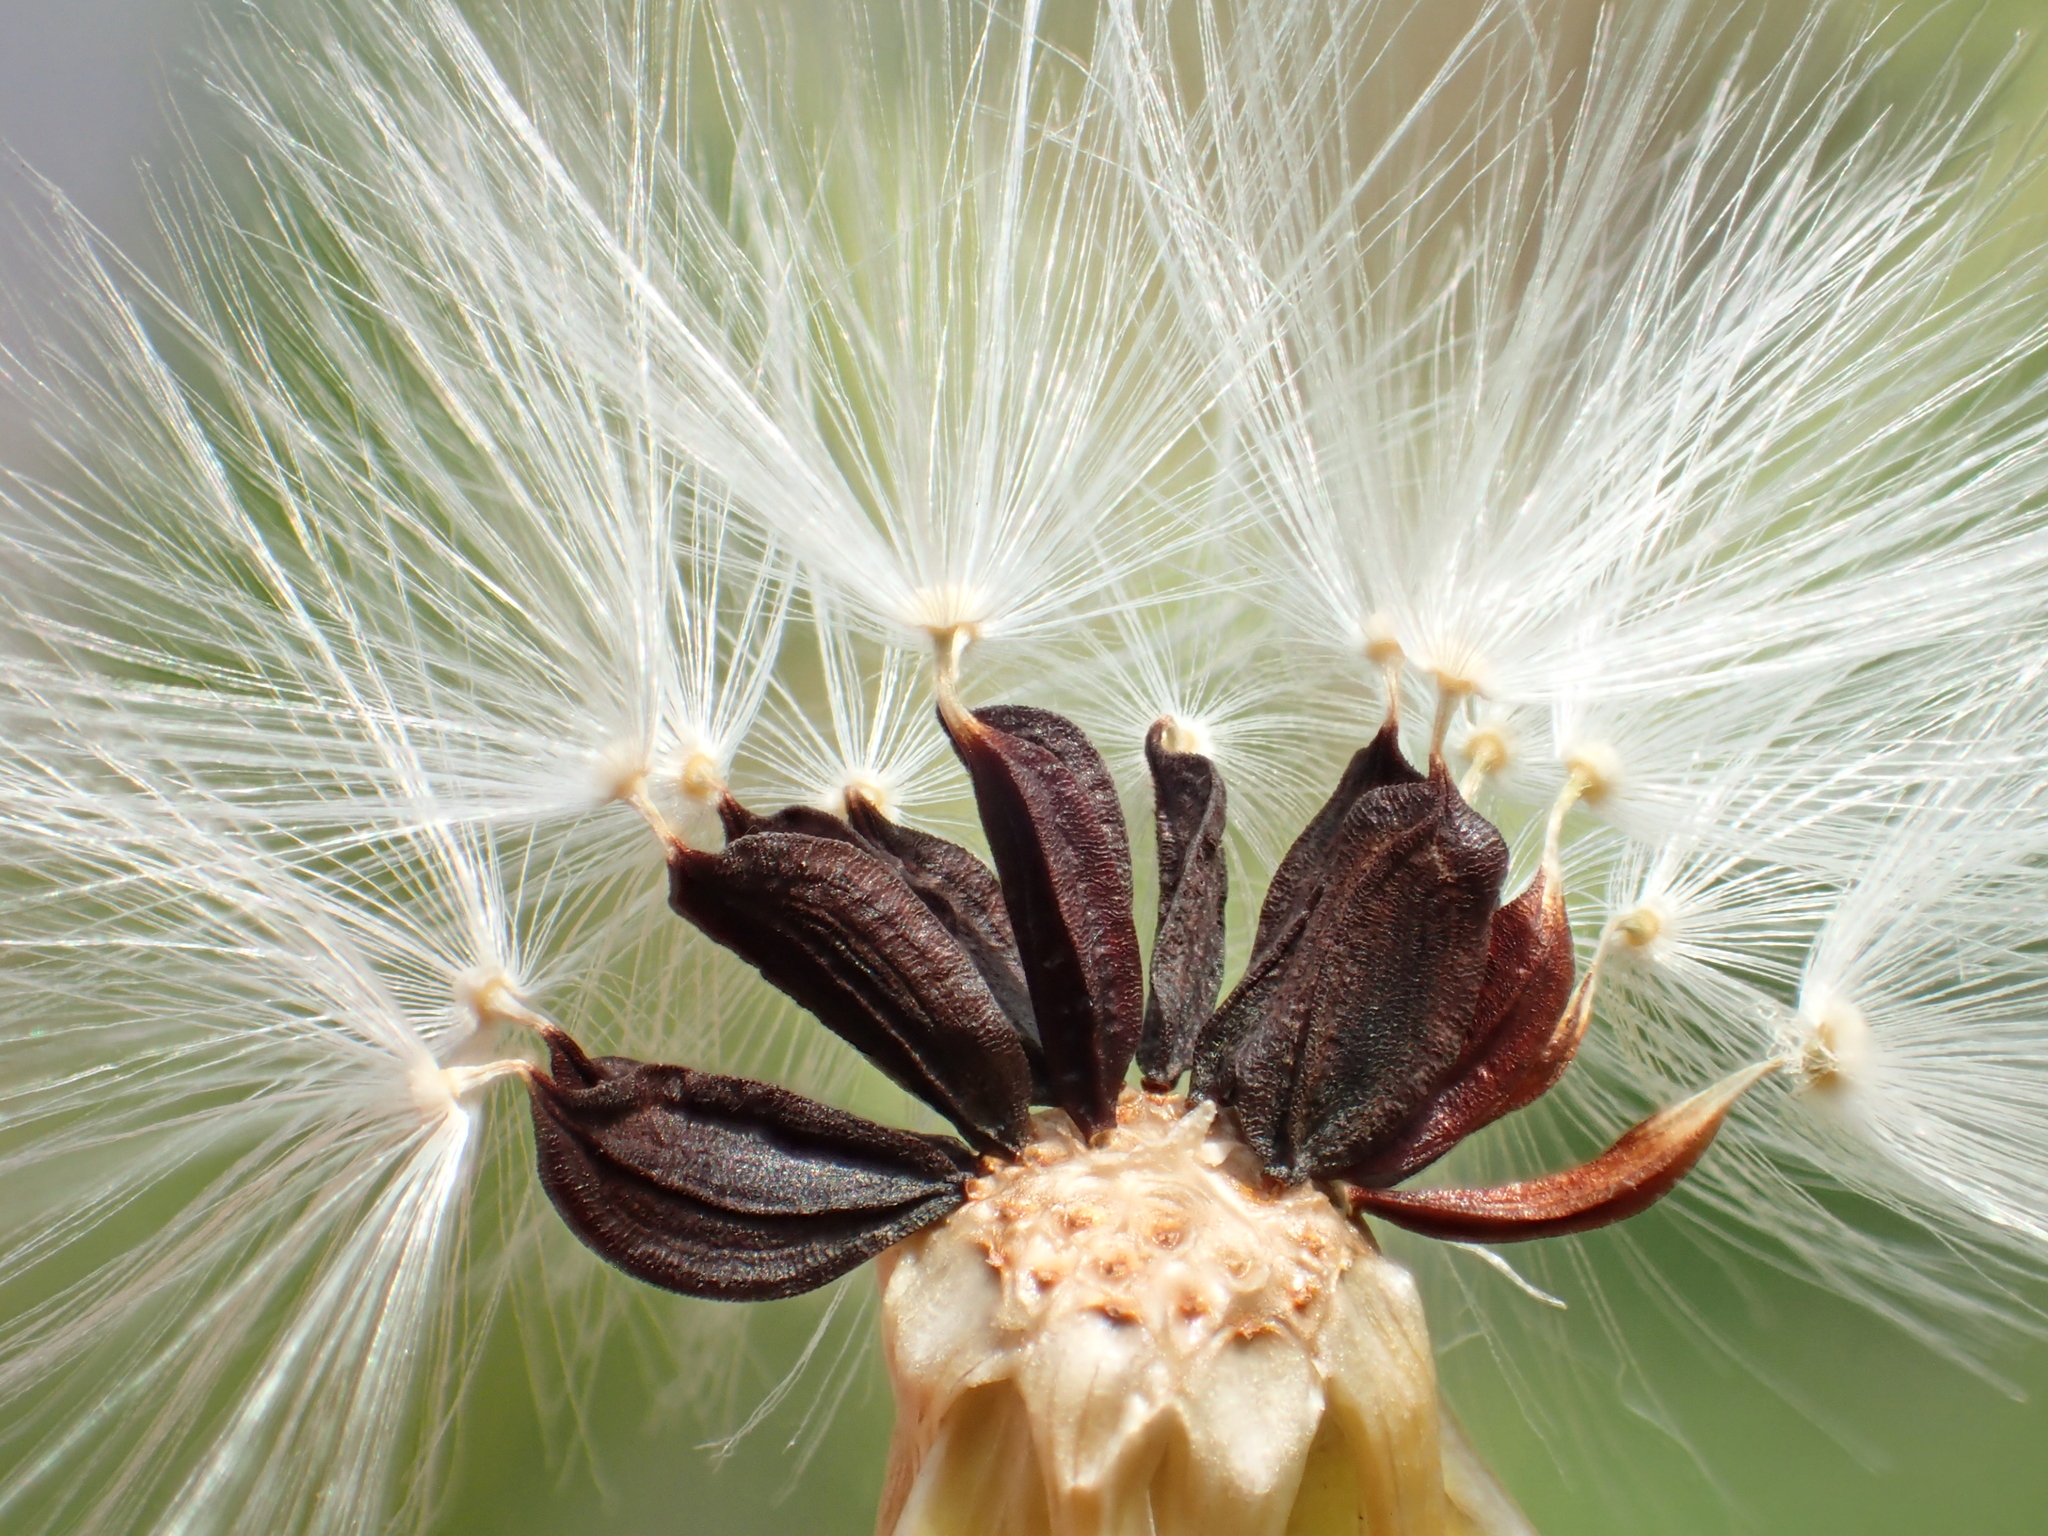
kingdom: Plantae
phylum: Tracheophyta
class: Magnoliopsida
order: Asterales
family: Asteraceae
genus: Lactuca
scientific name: Lactuca sativa
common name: Garden lettuce
